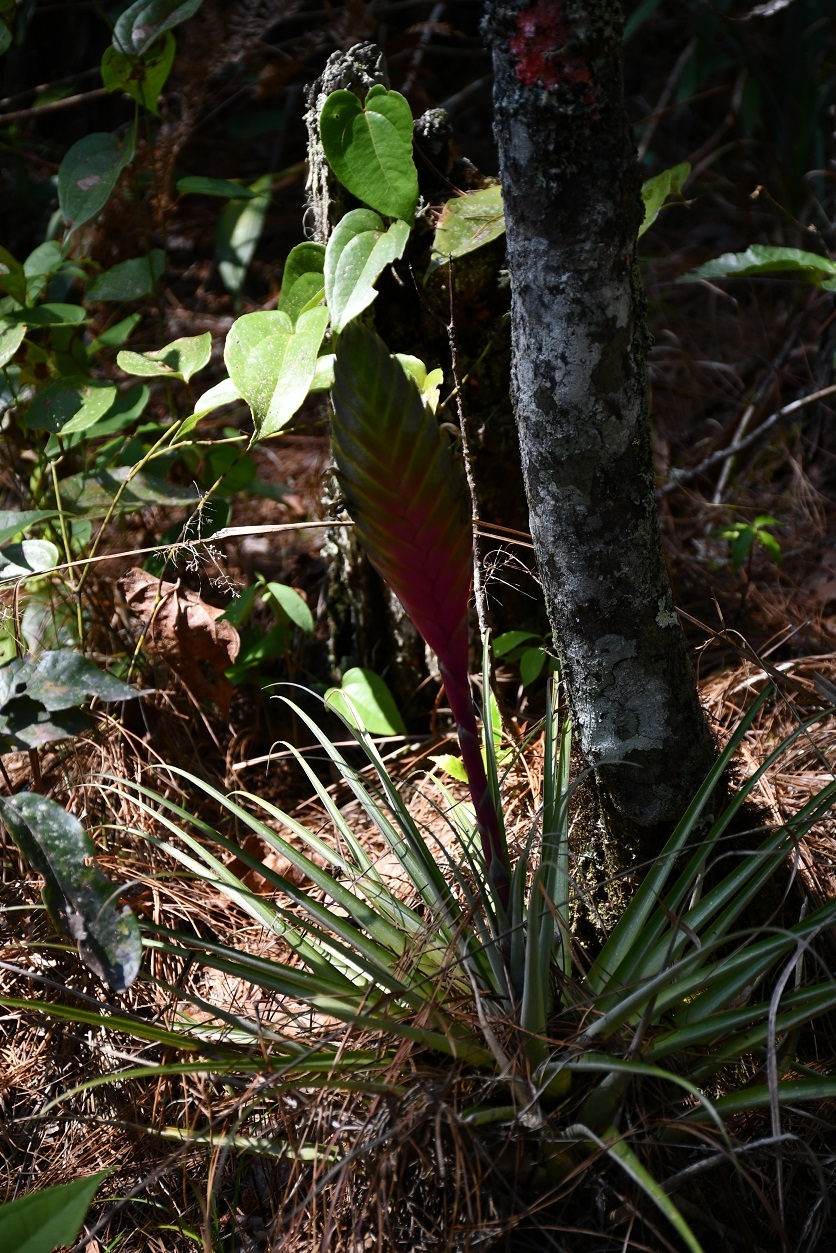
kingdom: Plantae
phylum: Tracheophyta
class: Liliopsida
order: Poales
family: Bromeliaceae
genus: Tillandsia
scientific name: Tillandsia lampropoda
